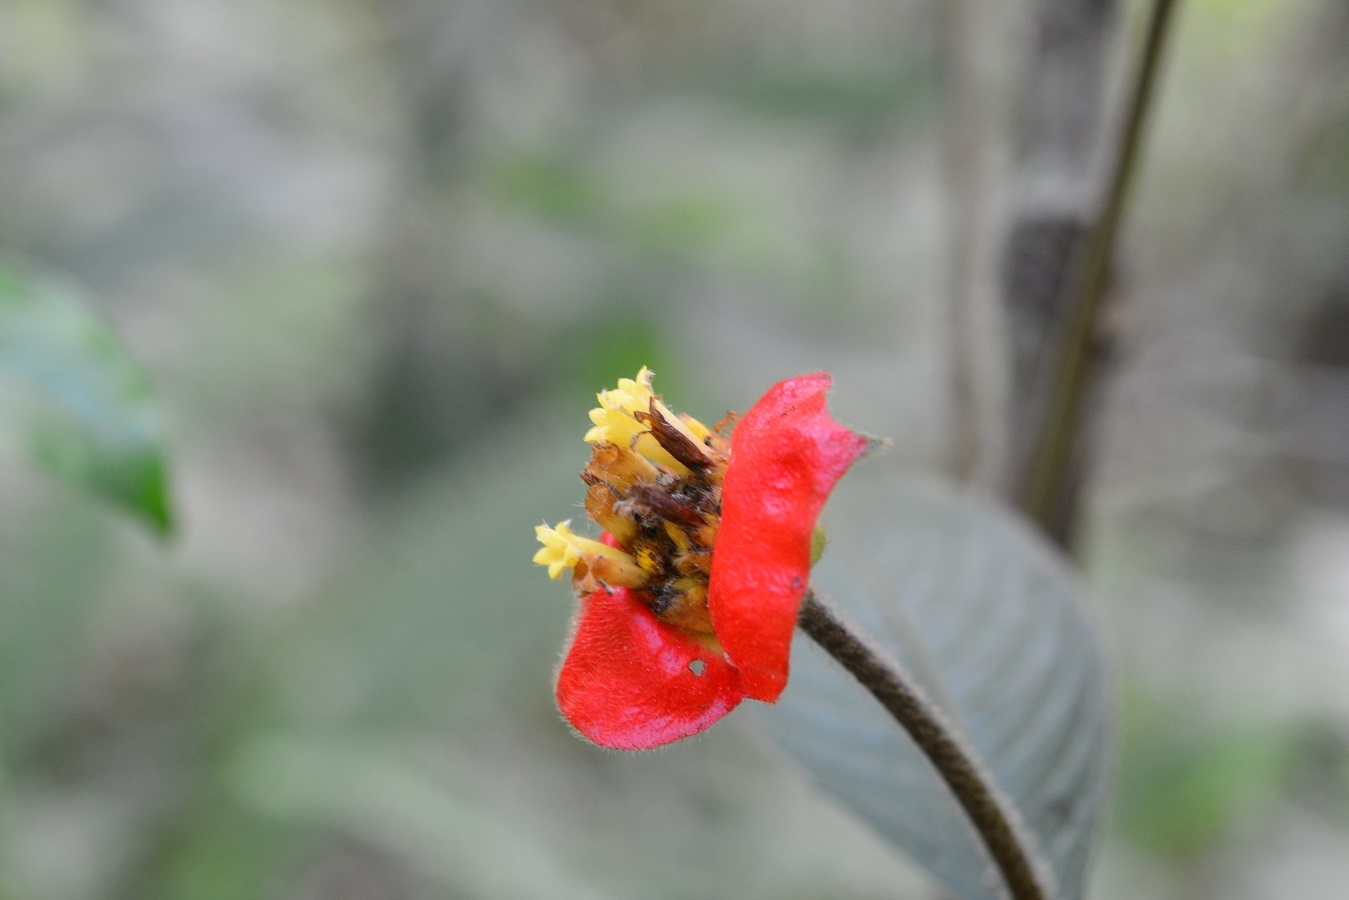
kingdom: Plantae
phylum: Tracheophyta
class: Magnoliopsida
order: Gentianales
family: Rubiaceae
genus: Palicourea
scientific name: Palicourea tomentosa
